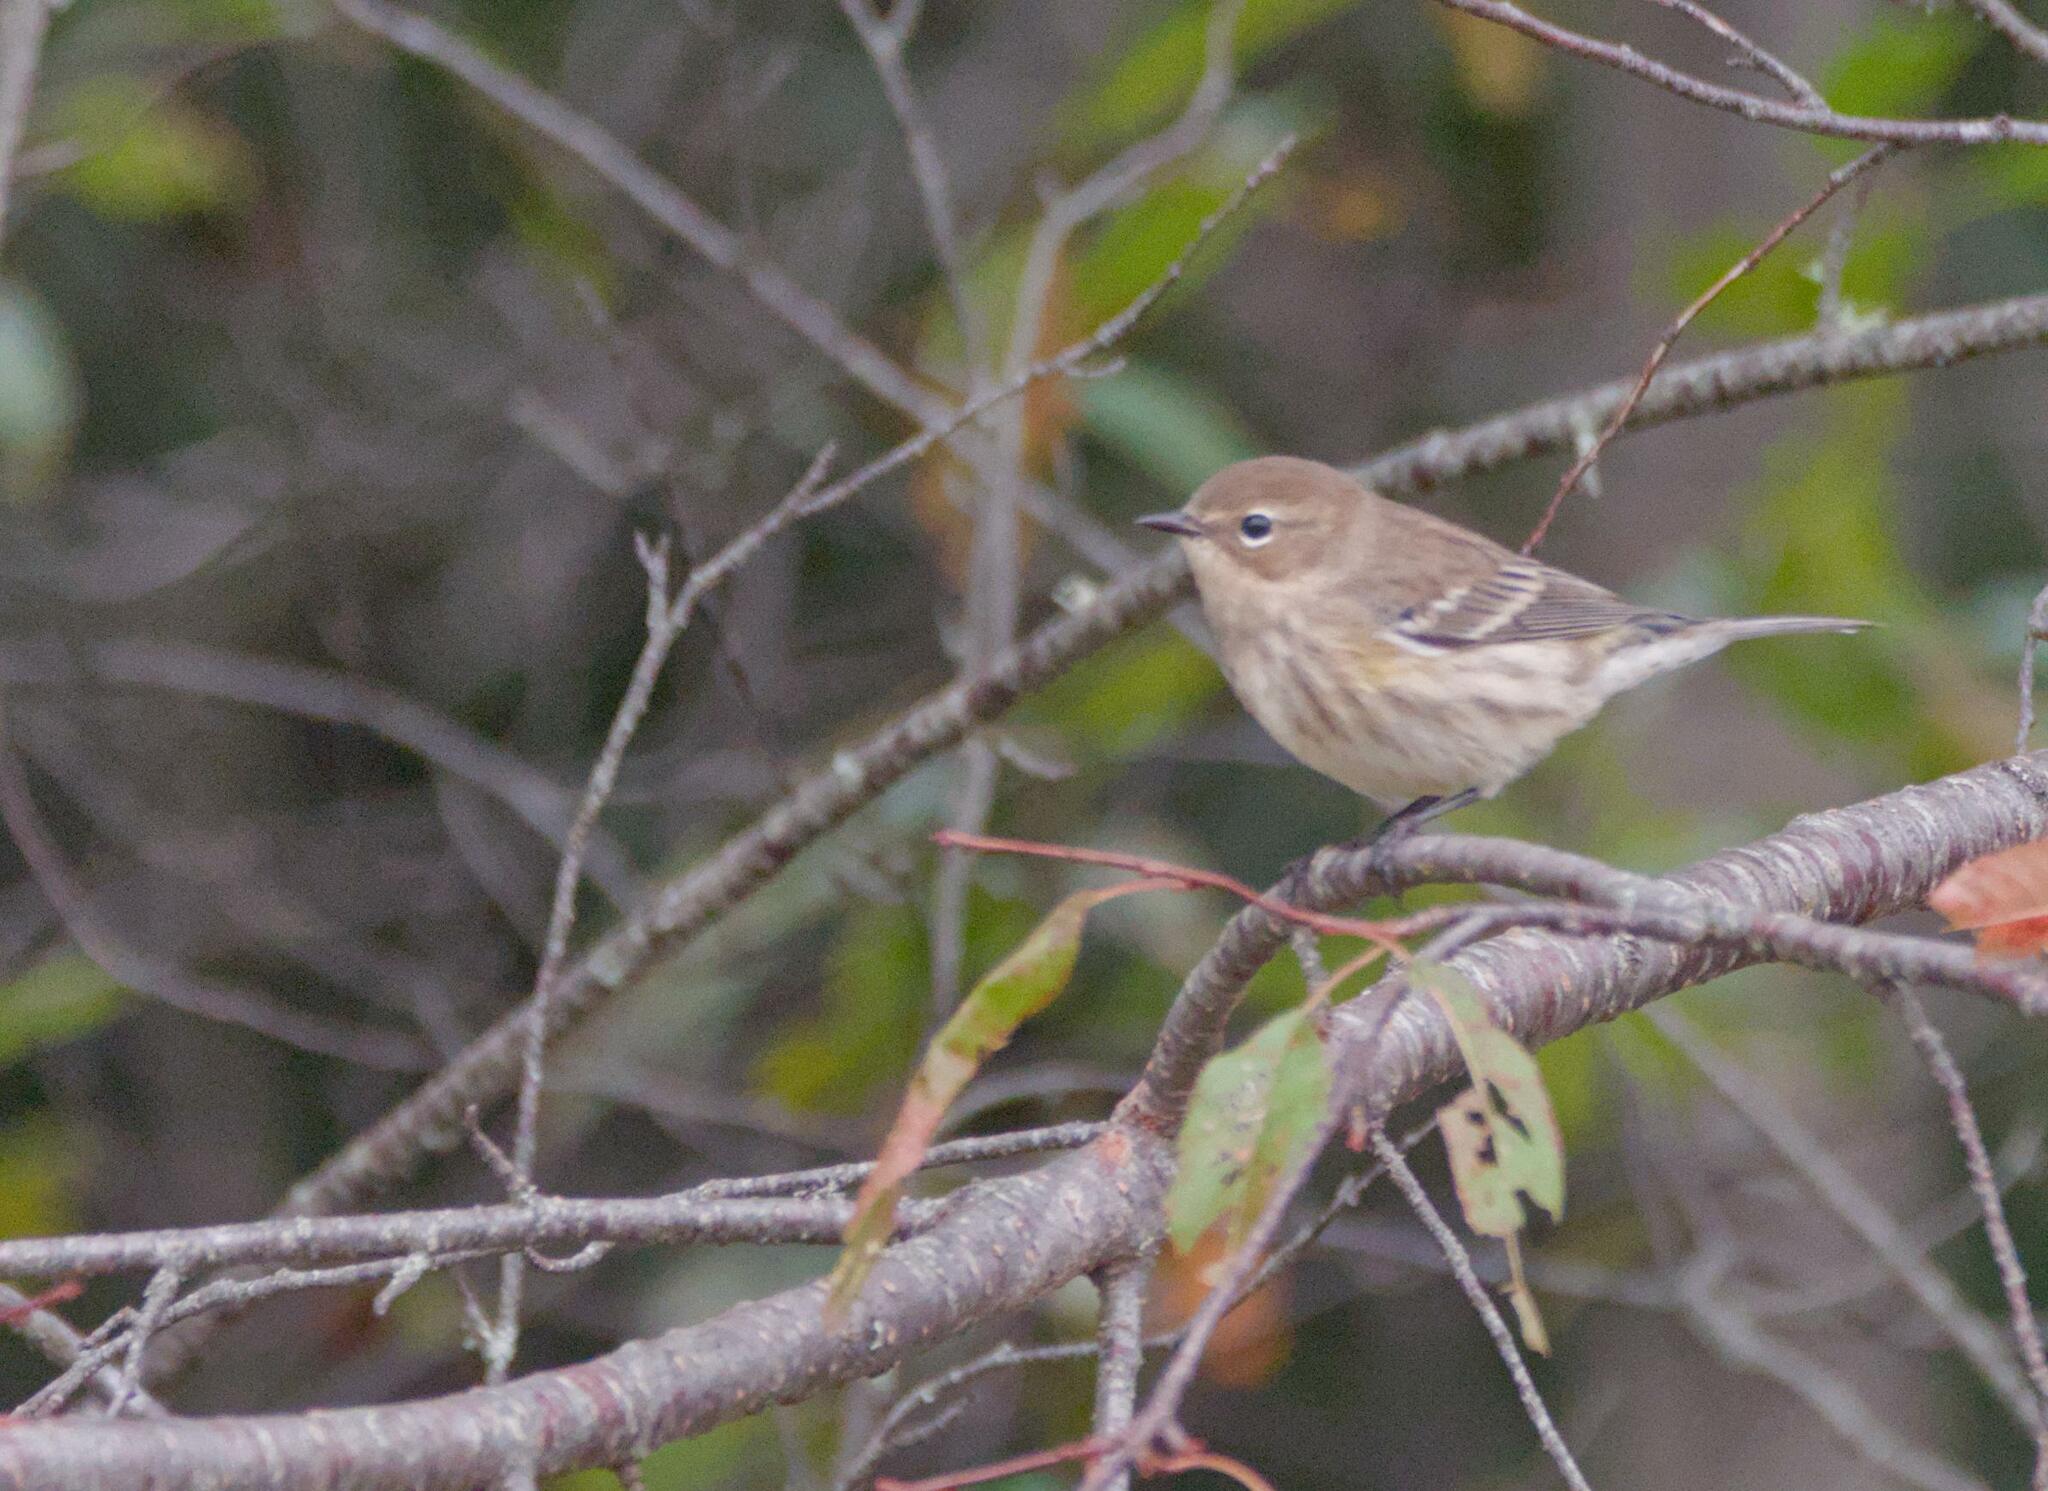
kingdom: Animalia
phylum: Chordata
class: Aves
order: Passeriformes
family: Parulidae
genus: Setophaga
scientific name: Setophaga coronata
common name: Myrtle warbler
